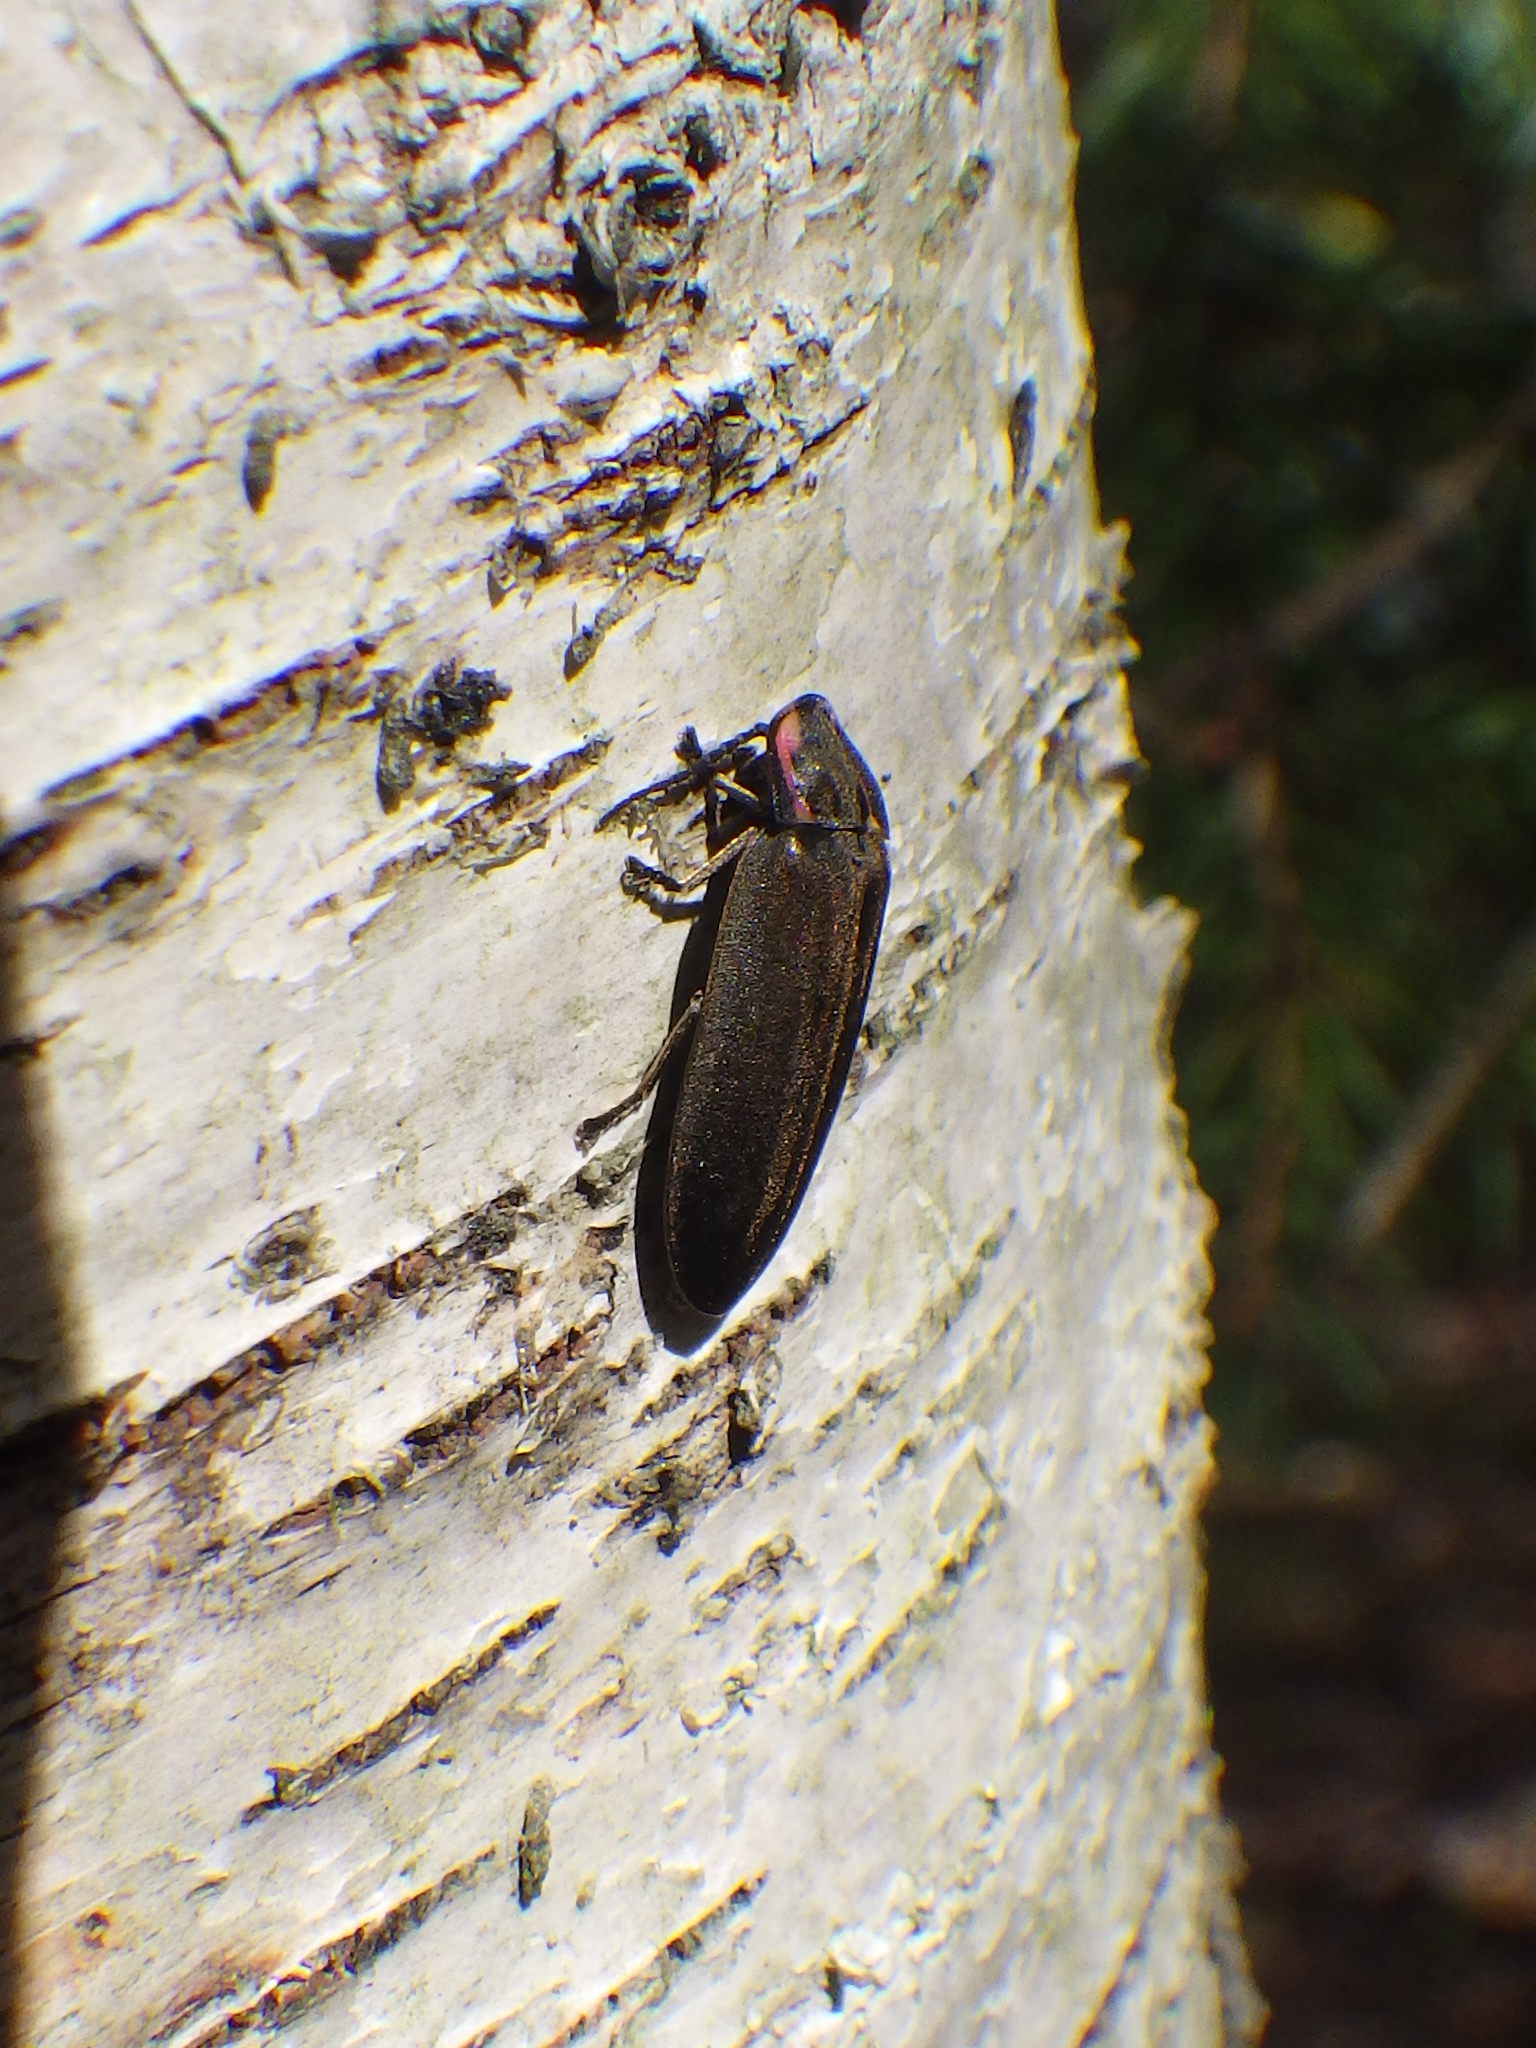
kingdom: Animalia
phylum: Arthropoda
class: Insecta
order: Coleoptera
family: Lampyridae
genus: Photinus
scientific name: Photinus corrusca
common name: Winter firefly
